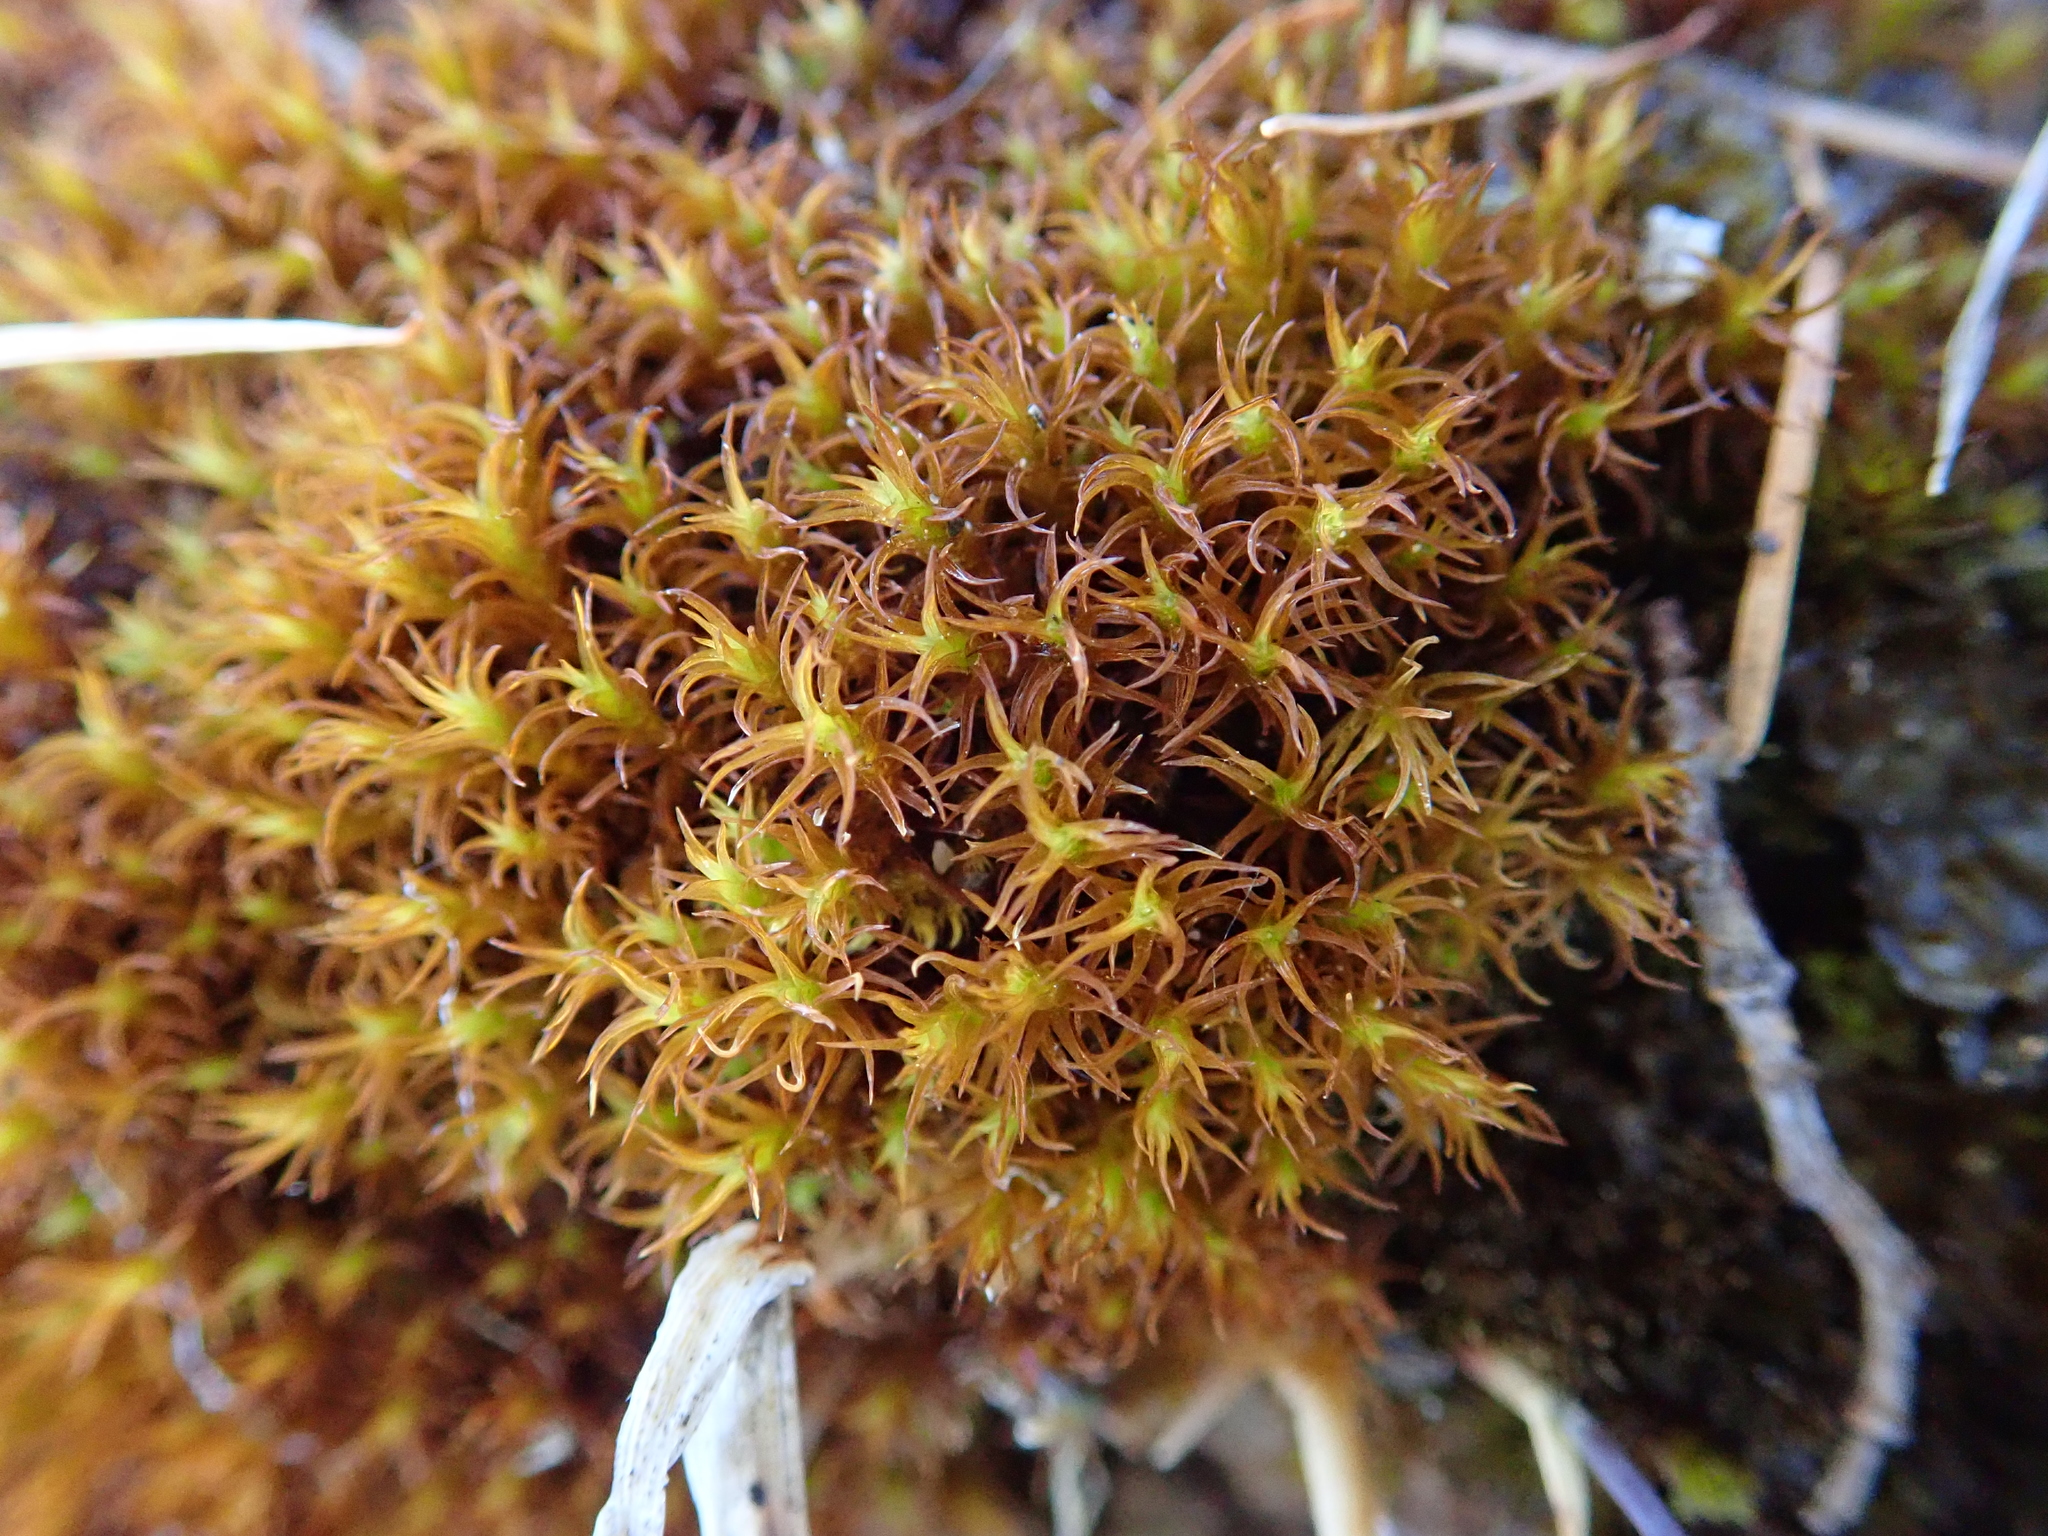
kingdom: Plantae
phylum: Bryophyta
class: Bryopsida
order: Pottiales
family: Pottiaceae
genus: Geheebia
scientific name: Geheebia fallax
